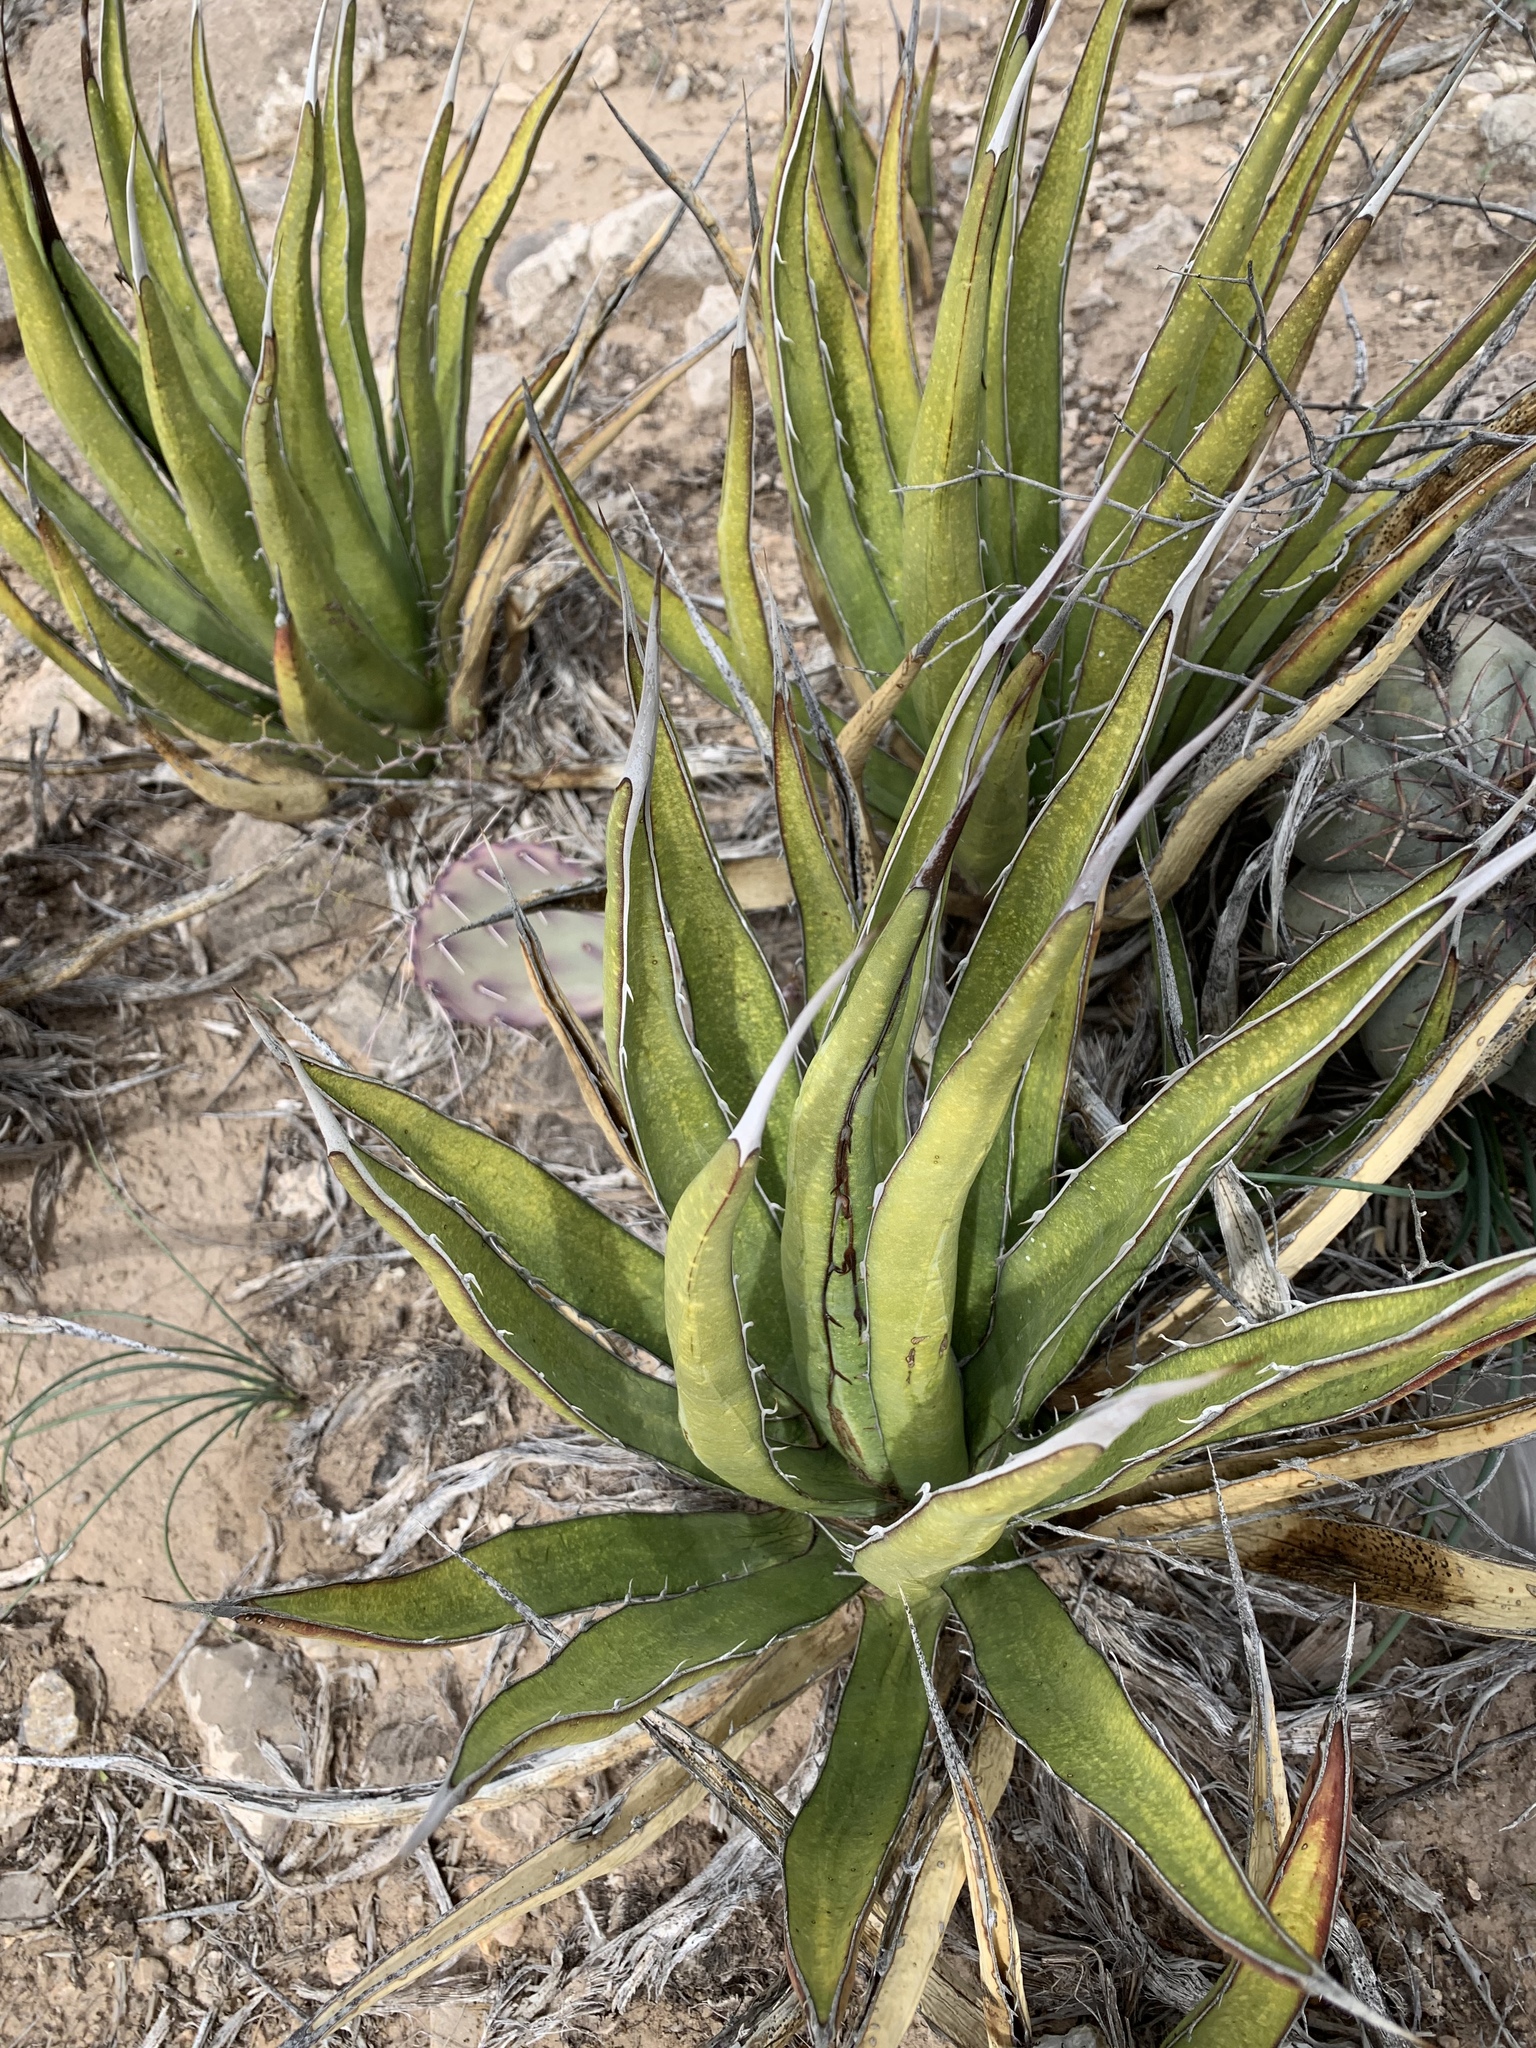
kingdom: Plantae
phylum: Tracheophyta
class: Liliopsida
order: Asparagales
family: Asparagaceae
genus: Agave
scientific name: Agave lechuguilla
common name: Lecheguilla agave
